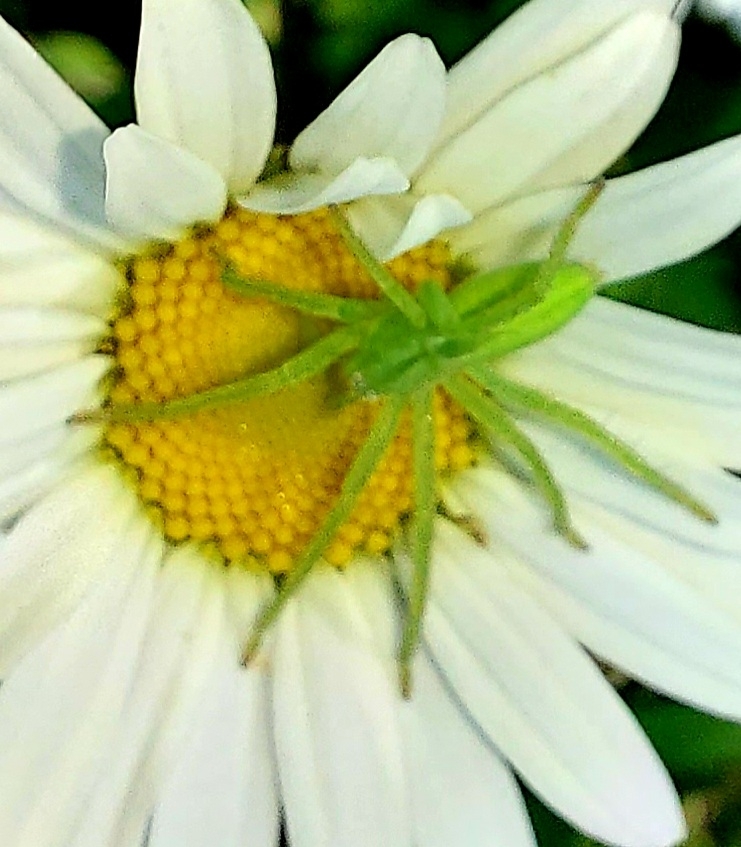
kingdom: Animalia
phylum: Arthropoda
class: Arachnida
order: Araneae
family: Sparassidae
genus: Micrommata
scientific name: Micrommata virescens
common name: Green spider
